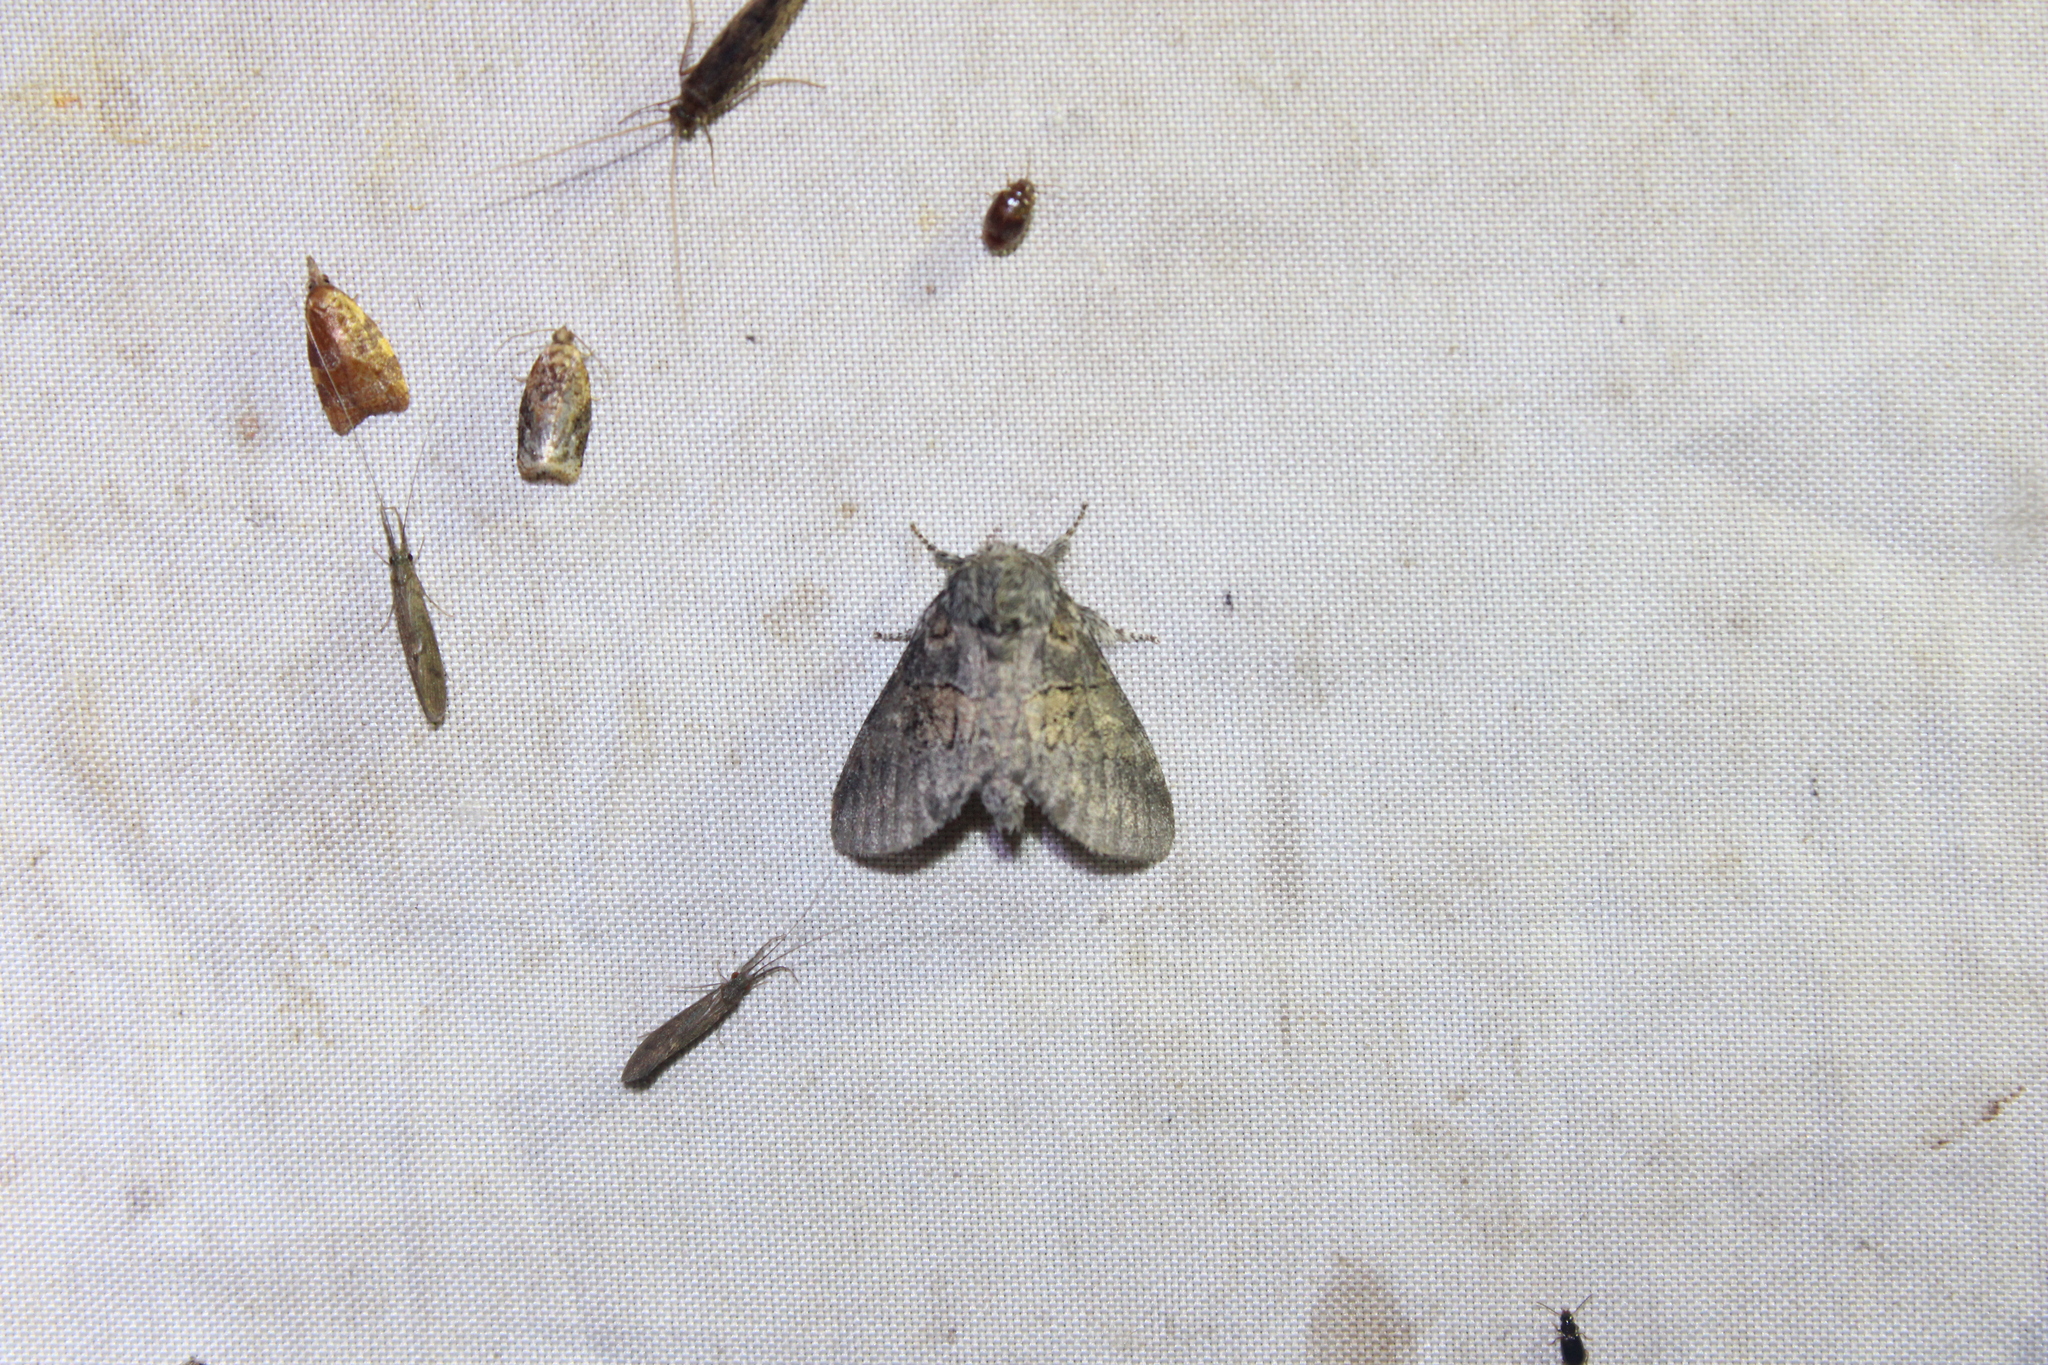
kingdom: Animalia
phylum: Arthropoda
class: Insecta
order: Lepidoptera
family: Notodontidae
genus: Gluphisia
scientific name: Gluphisia septentrionis
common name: Common gluphisia
